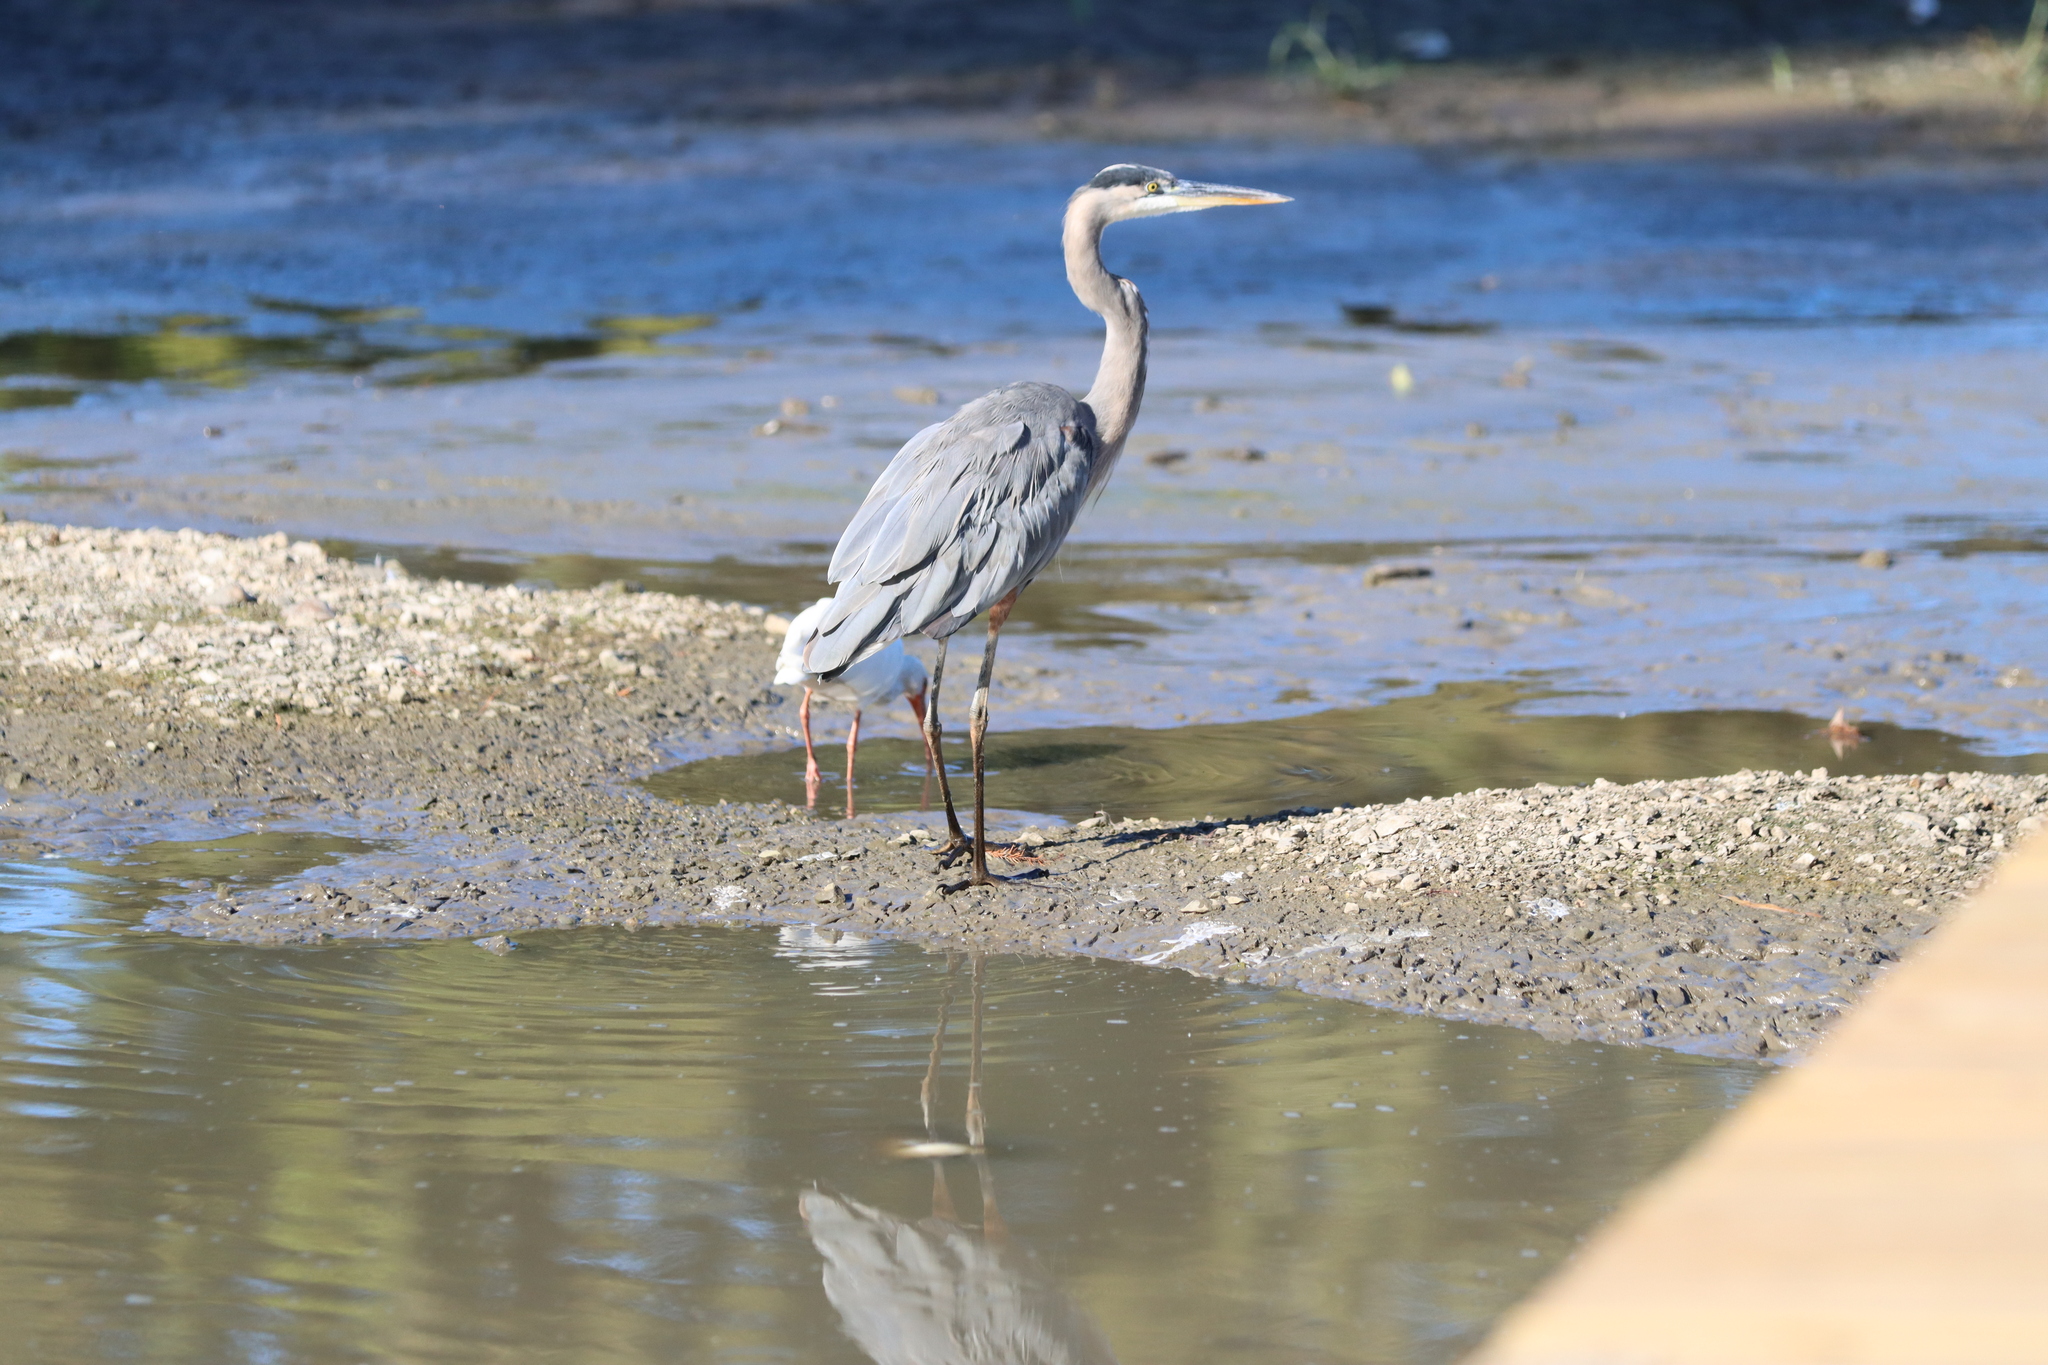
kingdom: Animalia
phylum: Chordata
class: Aves
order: Pelecaniformes
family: Ardeidae
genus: Ardea
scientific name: Ardea herodias
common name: Great blue heron
